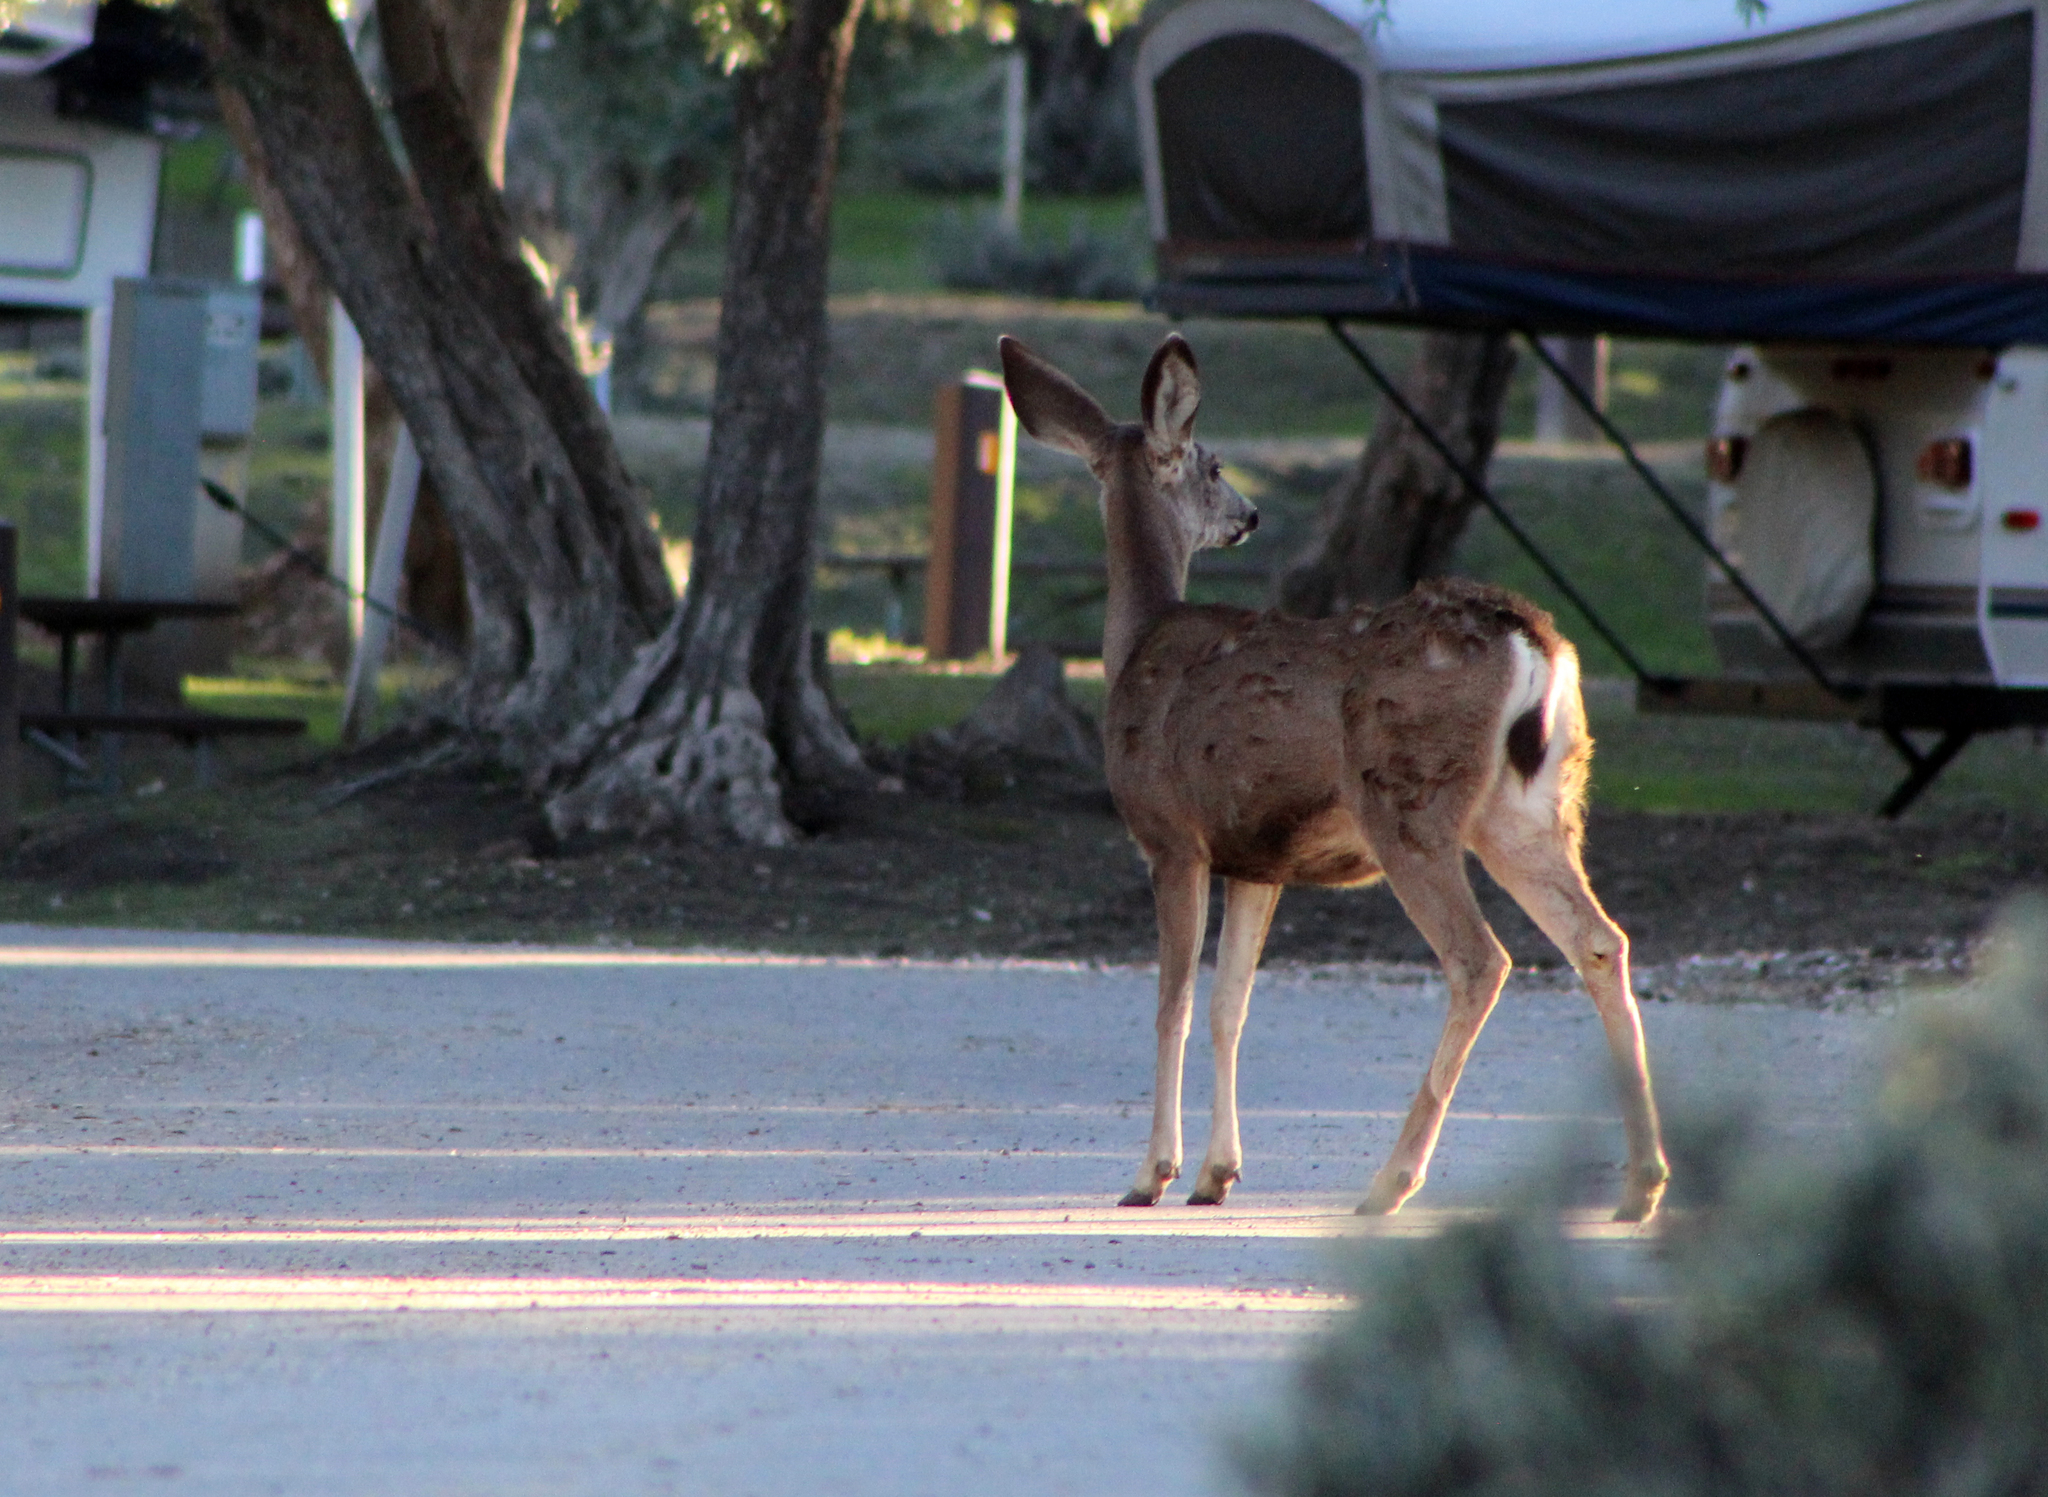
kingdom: Animalia
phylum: Chordata
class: Mammalia
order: Artiodactyla
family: Cervidae
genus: Odocoileus
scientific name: Odocoileus hemionus
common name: Mule deer
